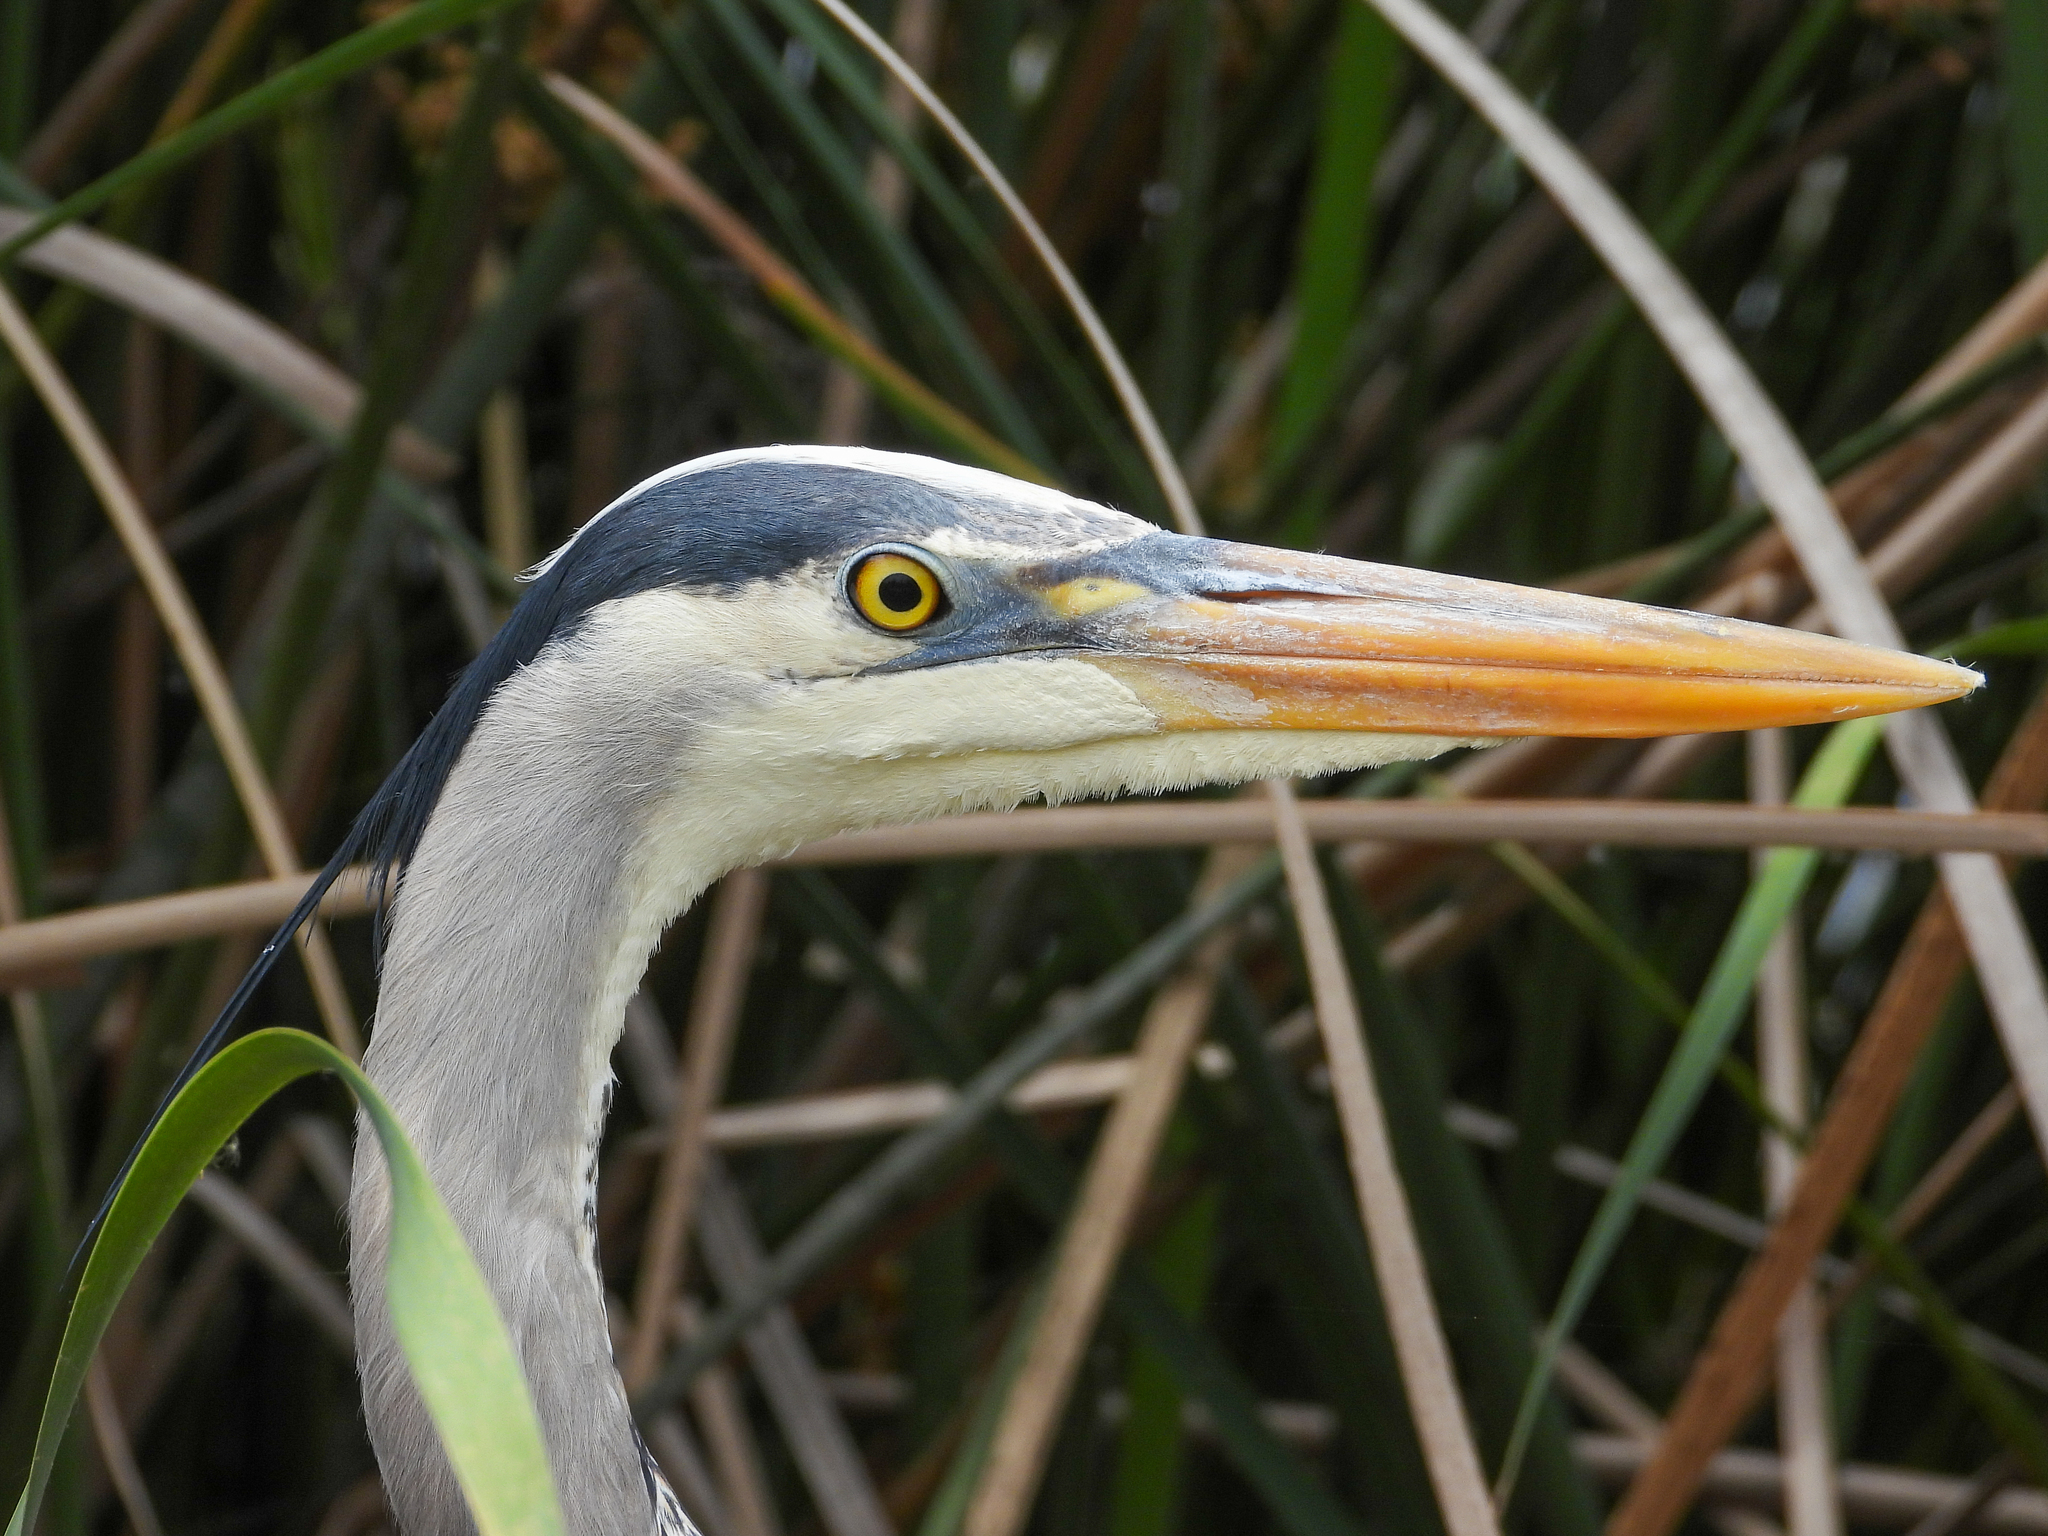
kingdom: Animalia
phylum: Chordata
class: Aves
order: Pelecaniformes
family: Ardeidae
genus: Ardea
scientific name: Ardea herodias
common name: Great blue heron
